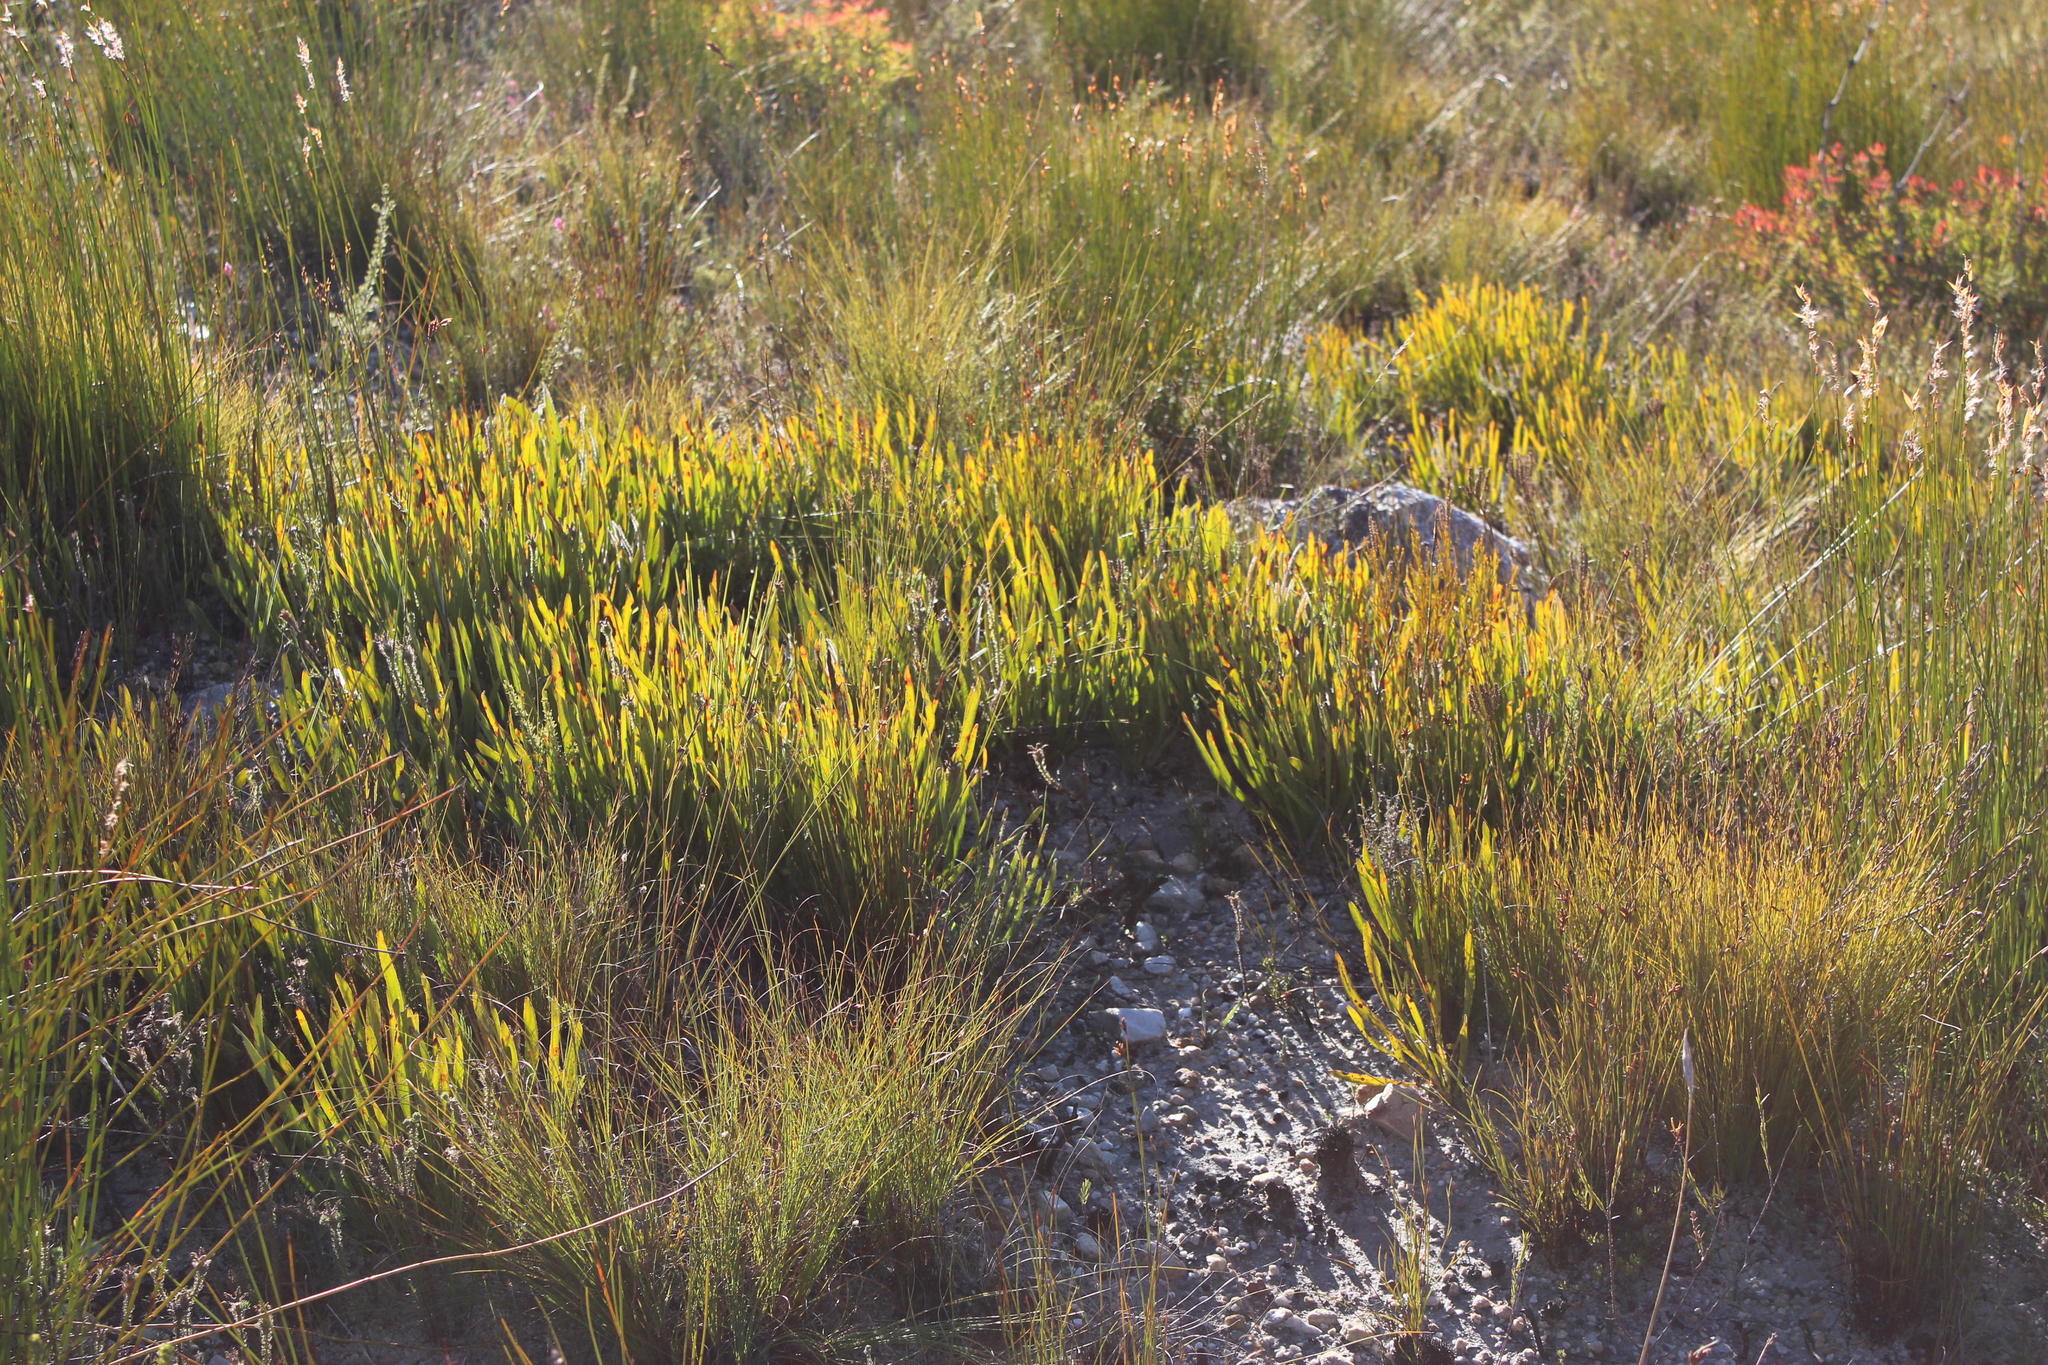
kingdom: Plantae
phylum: Tracheophyta
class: Magnoliopsida
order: Proteales
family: Proteaceae
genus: Protea
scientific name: Protea scabra
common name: Sandpaper-leaf sugarbush
